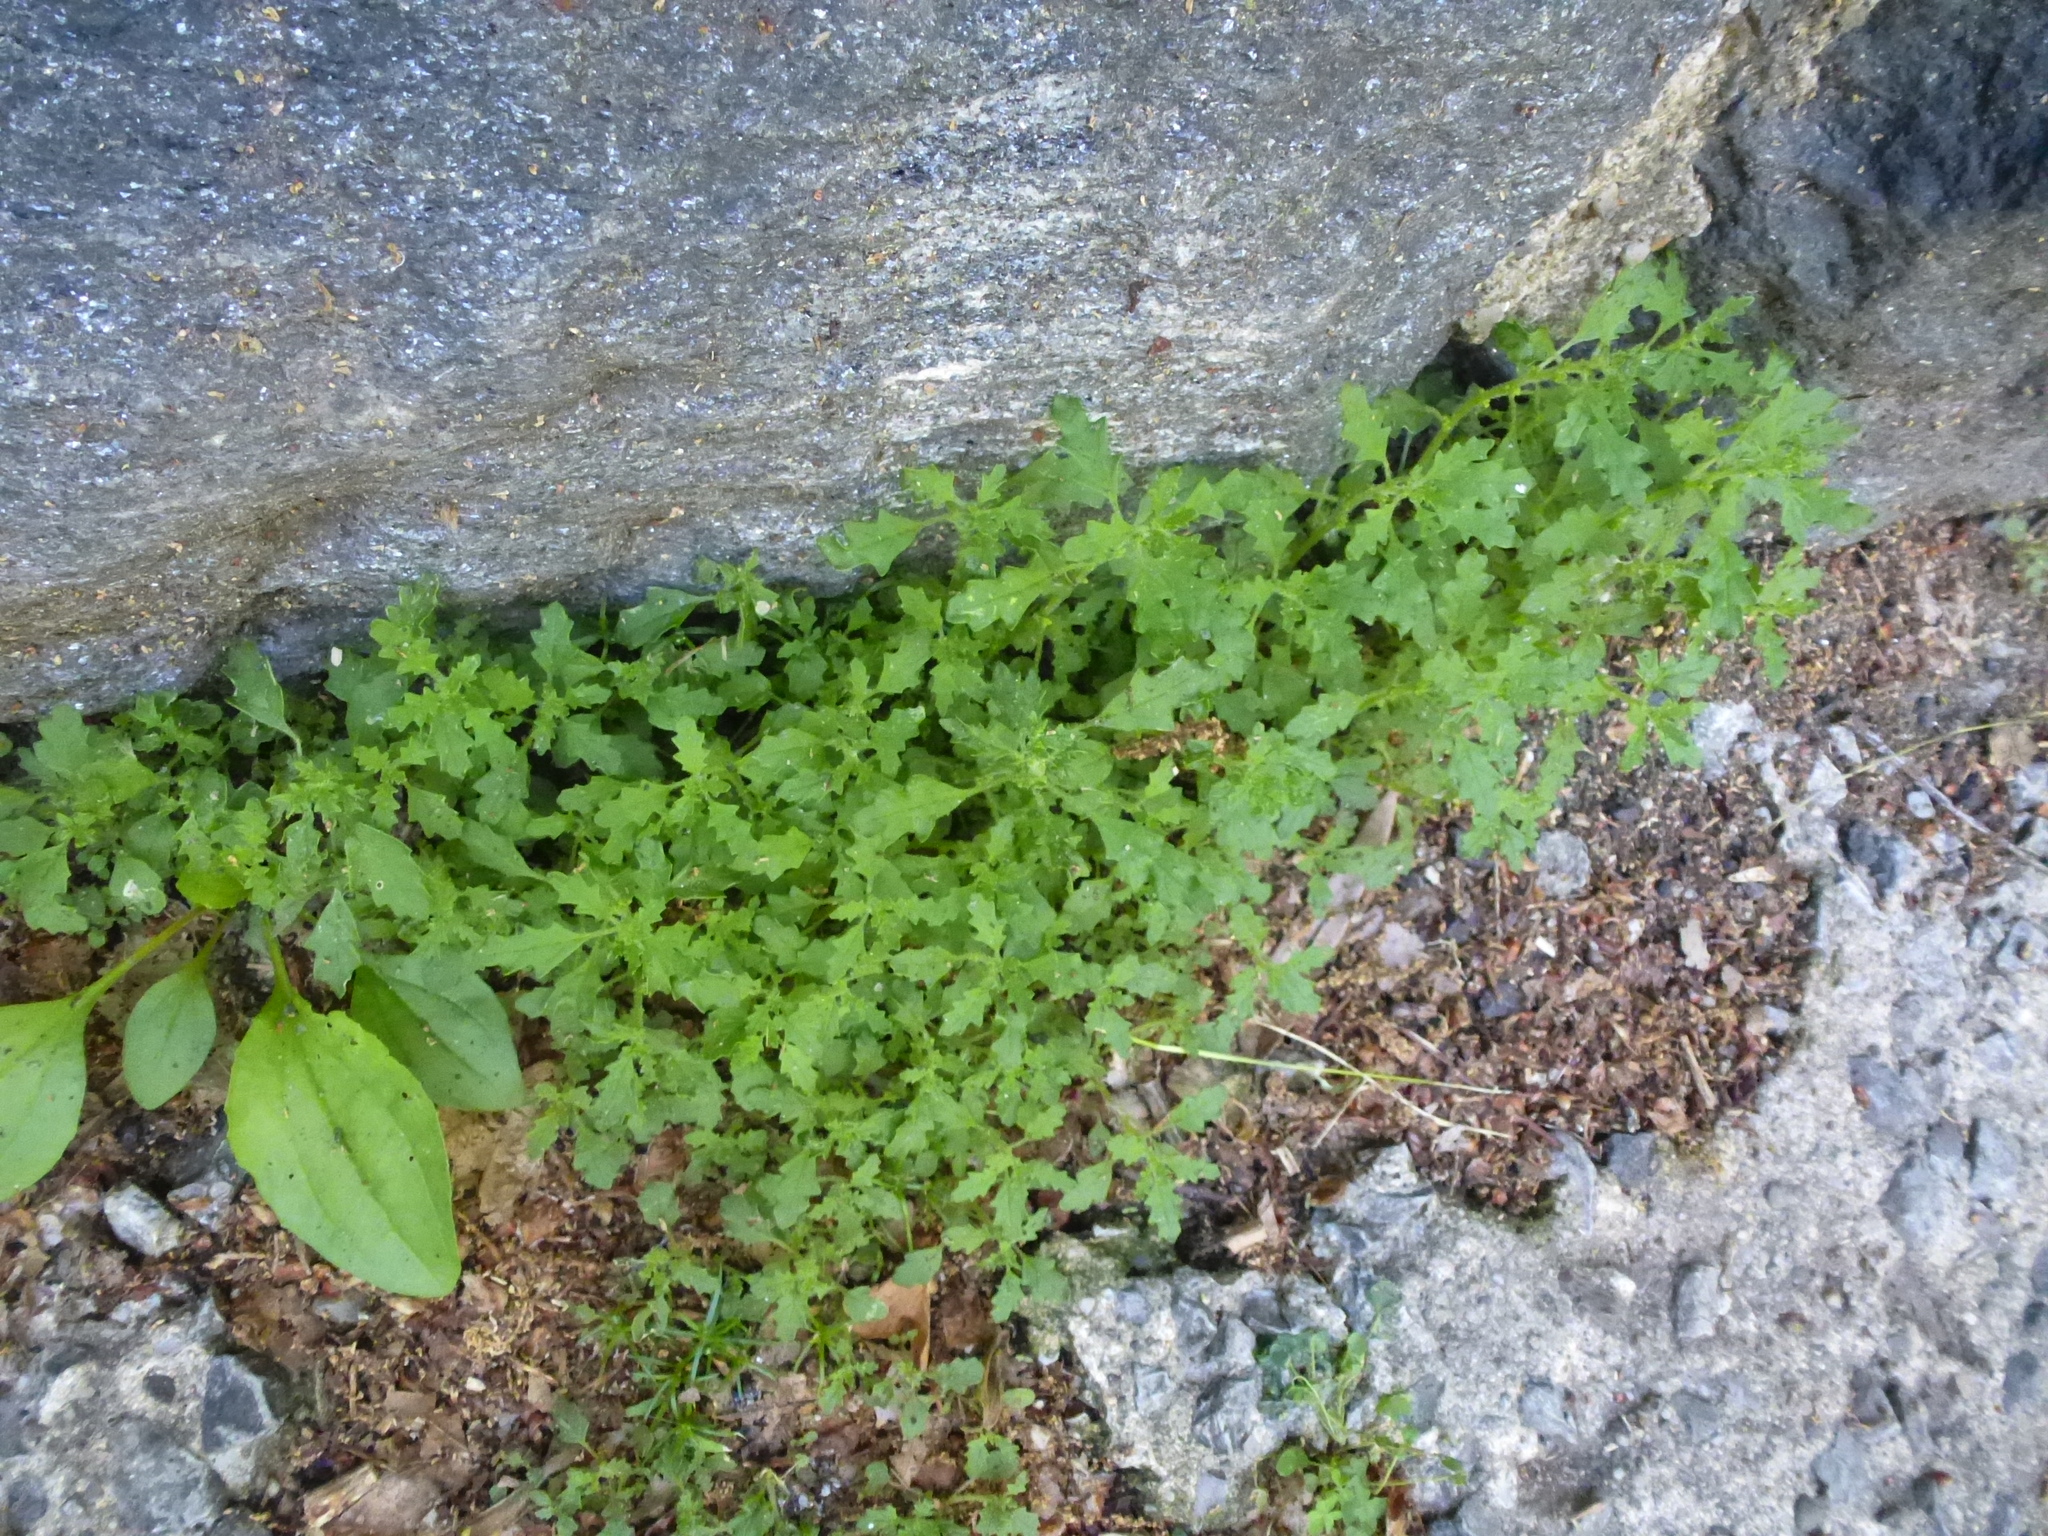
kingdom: Plantae
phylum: Tracheophyta
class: Magnoliopsida
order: Caryophyllales
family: Amaranthaceae
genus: Dysphania
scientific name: Dysphania pumilio
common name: Clammy goosefoot
